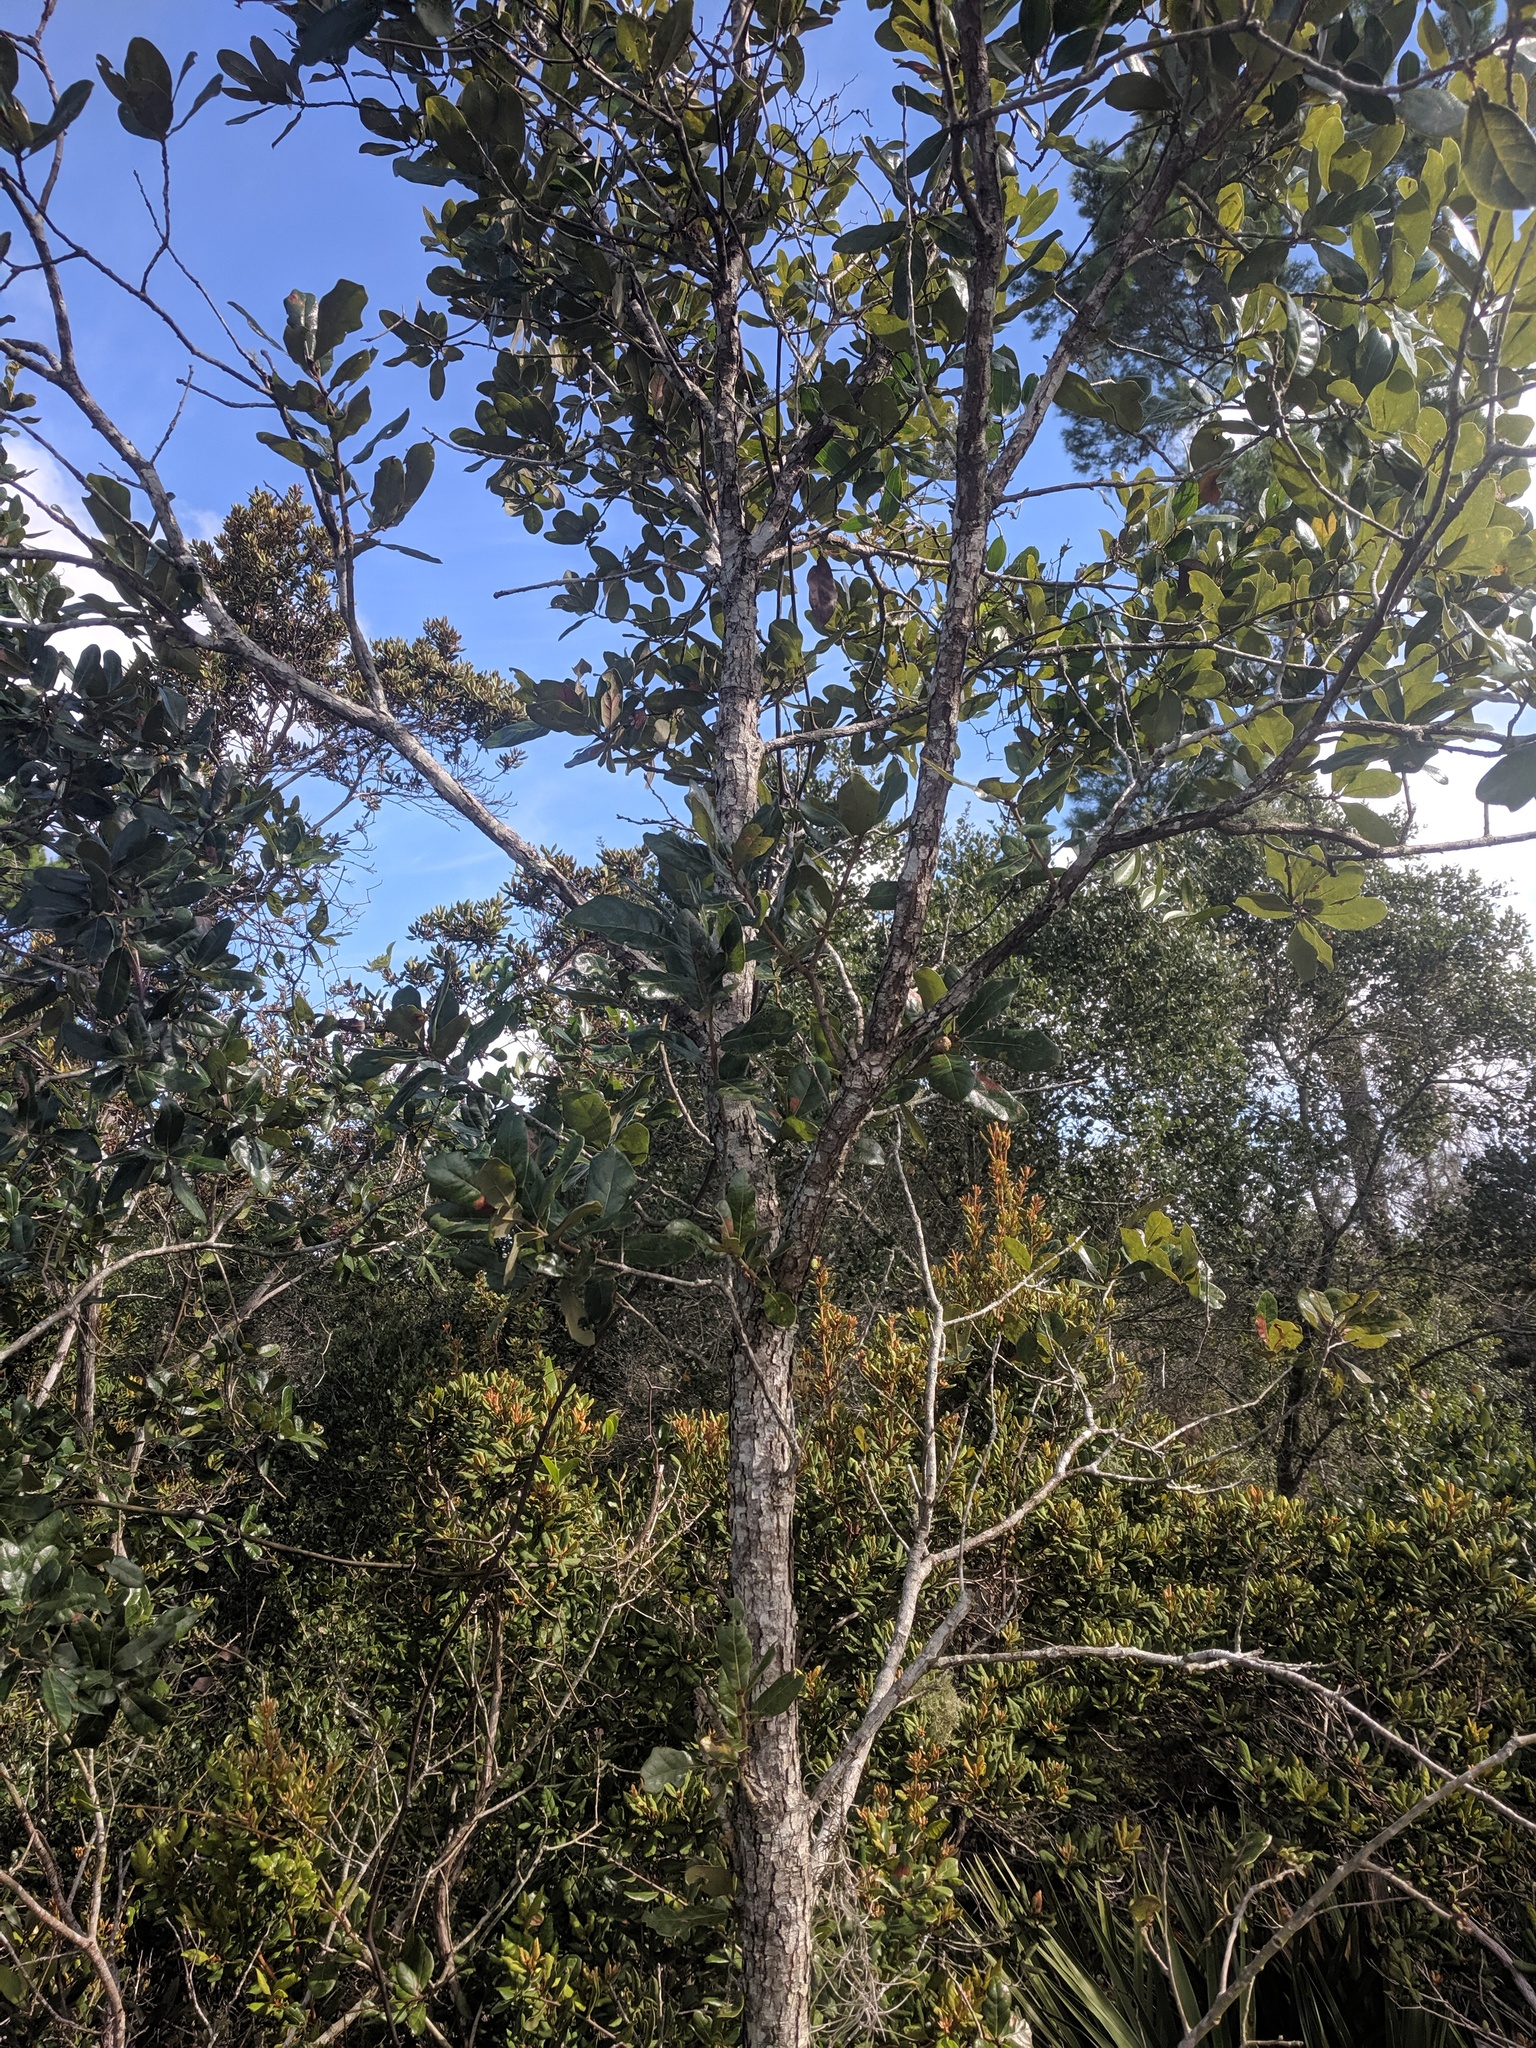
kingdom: Plantae
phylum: Tracheophyta
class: Magnoliopsida
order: Fagales
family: Fagaceae
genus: Quercus
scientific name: Quercus chapmanii
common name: Chapman oak
